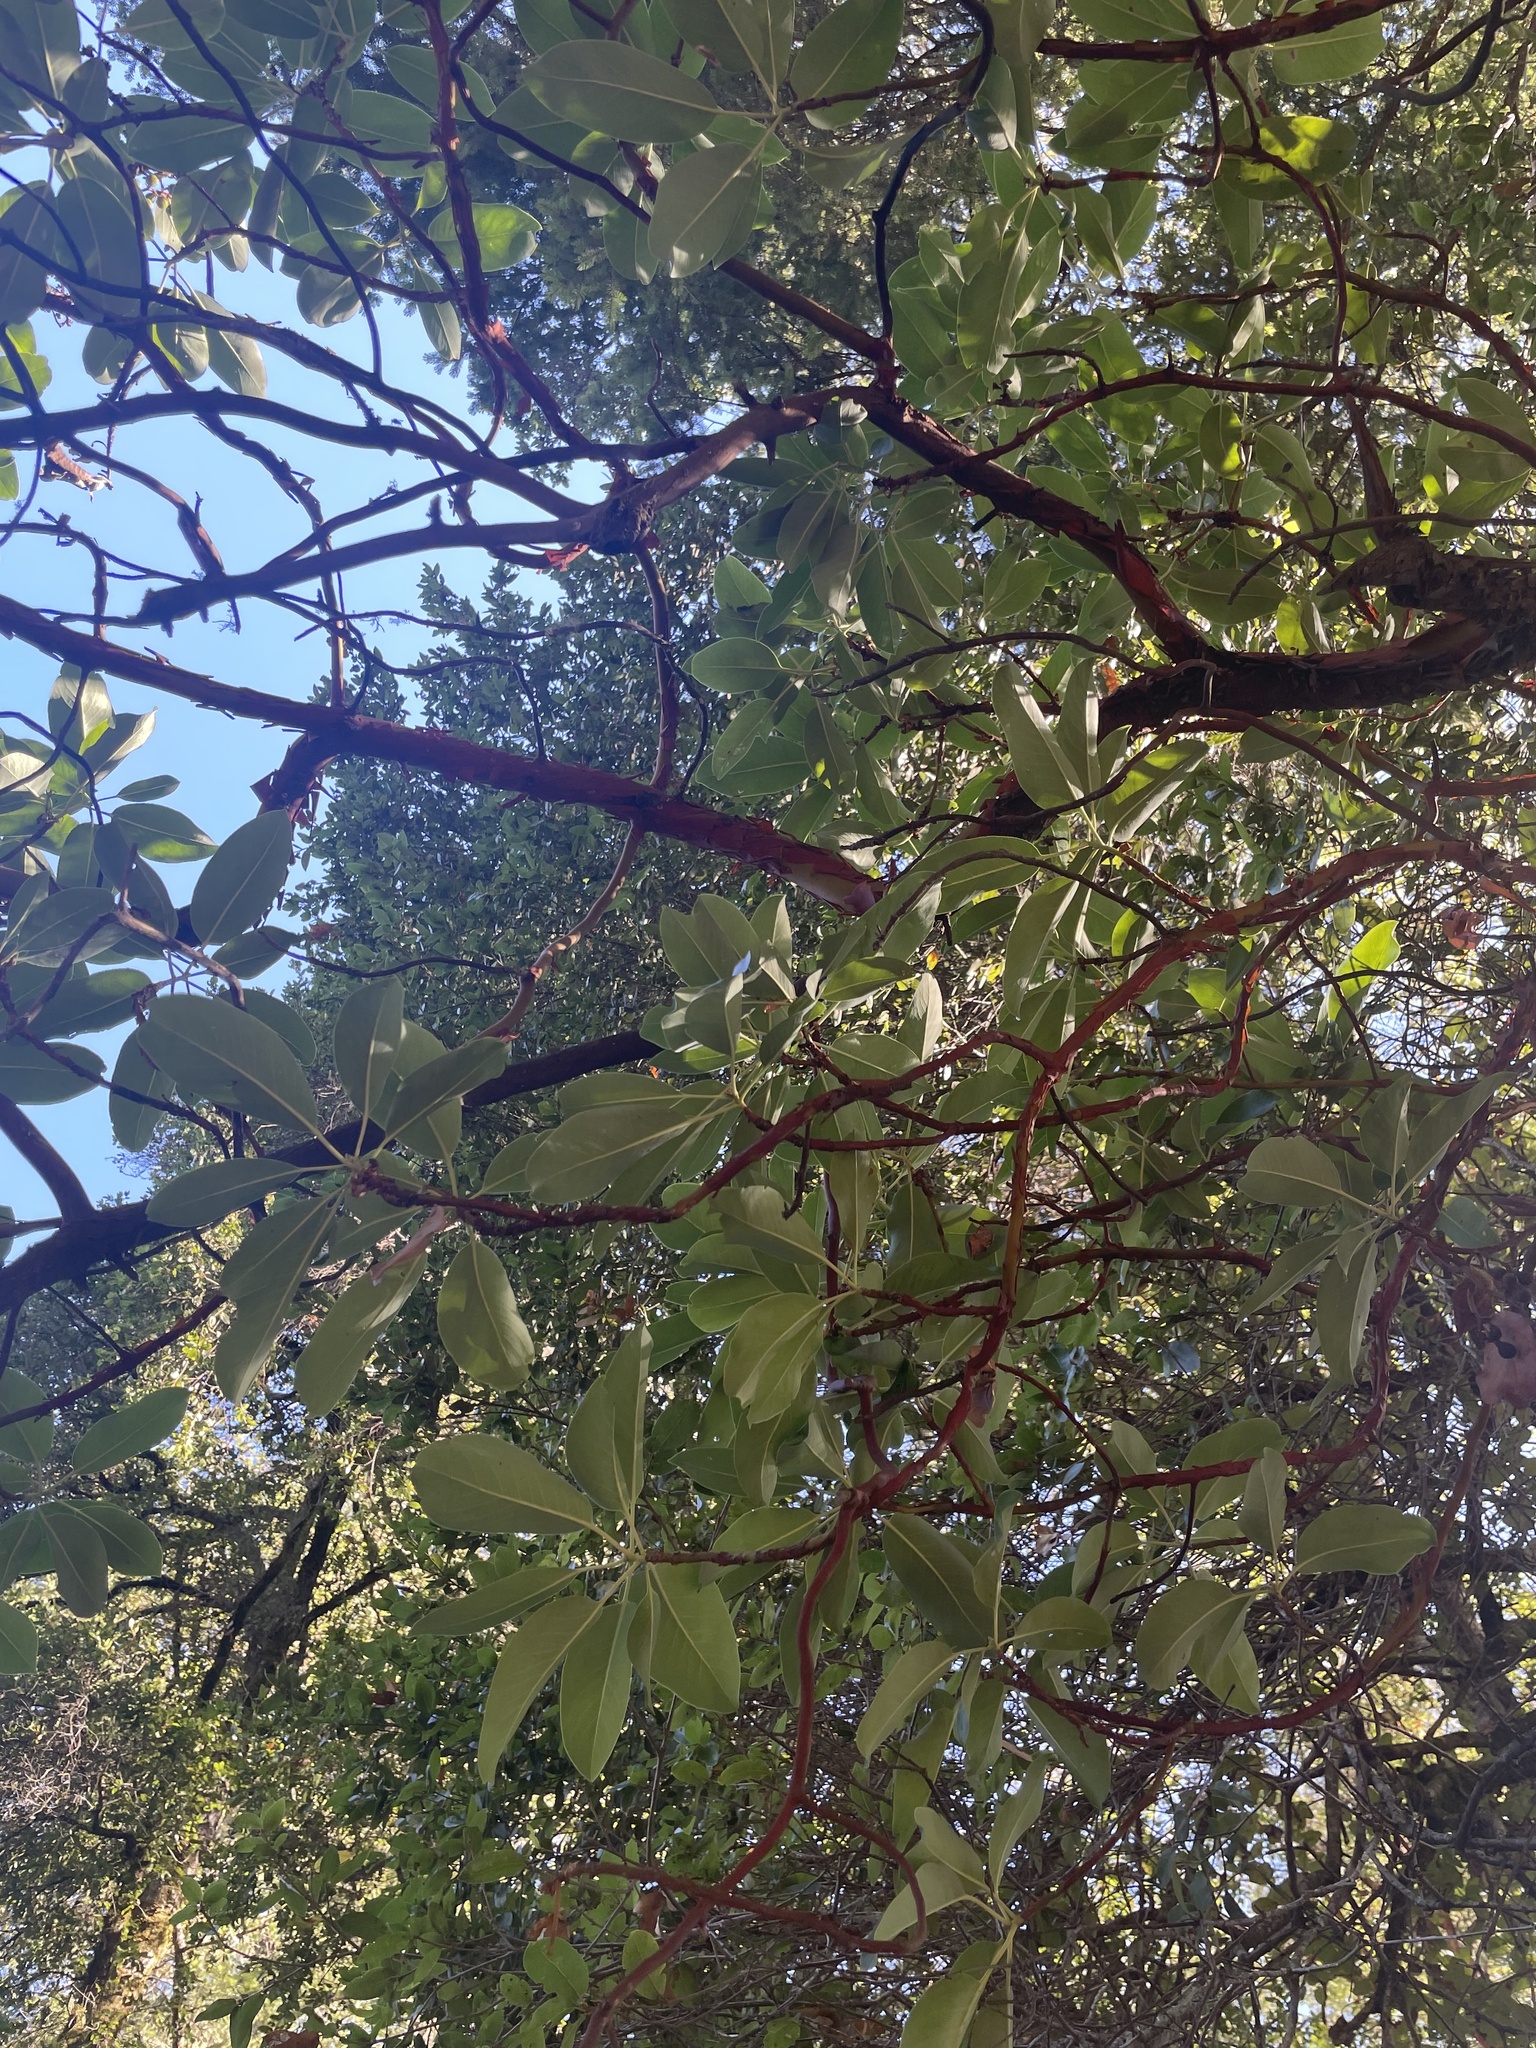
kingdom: Plantae
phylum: Tracheophyta
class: Magnoliopsida
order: Ericales
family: Ericaceae
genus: Arbutus
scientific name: Arbutus menziesii
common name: Pacific madrone
